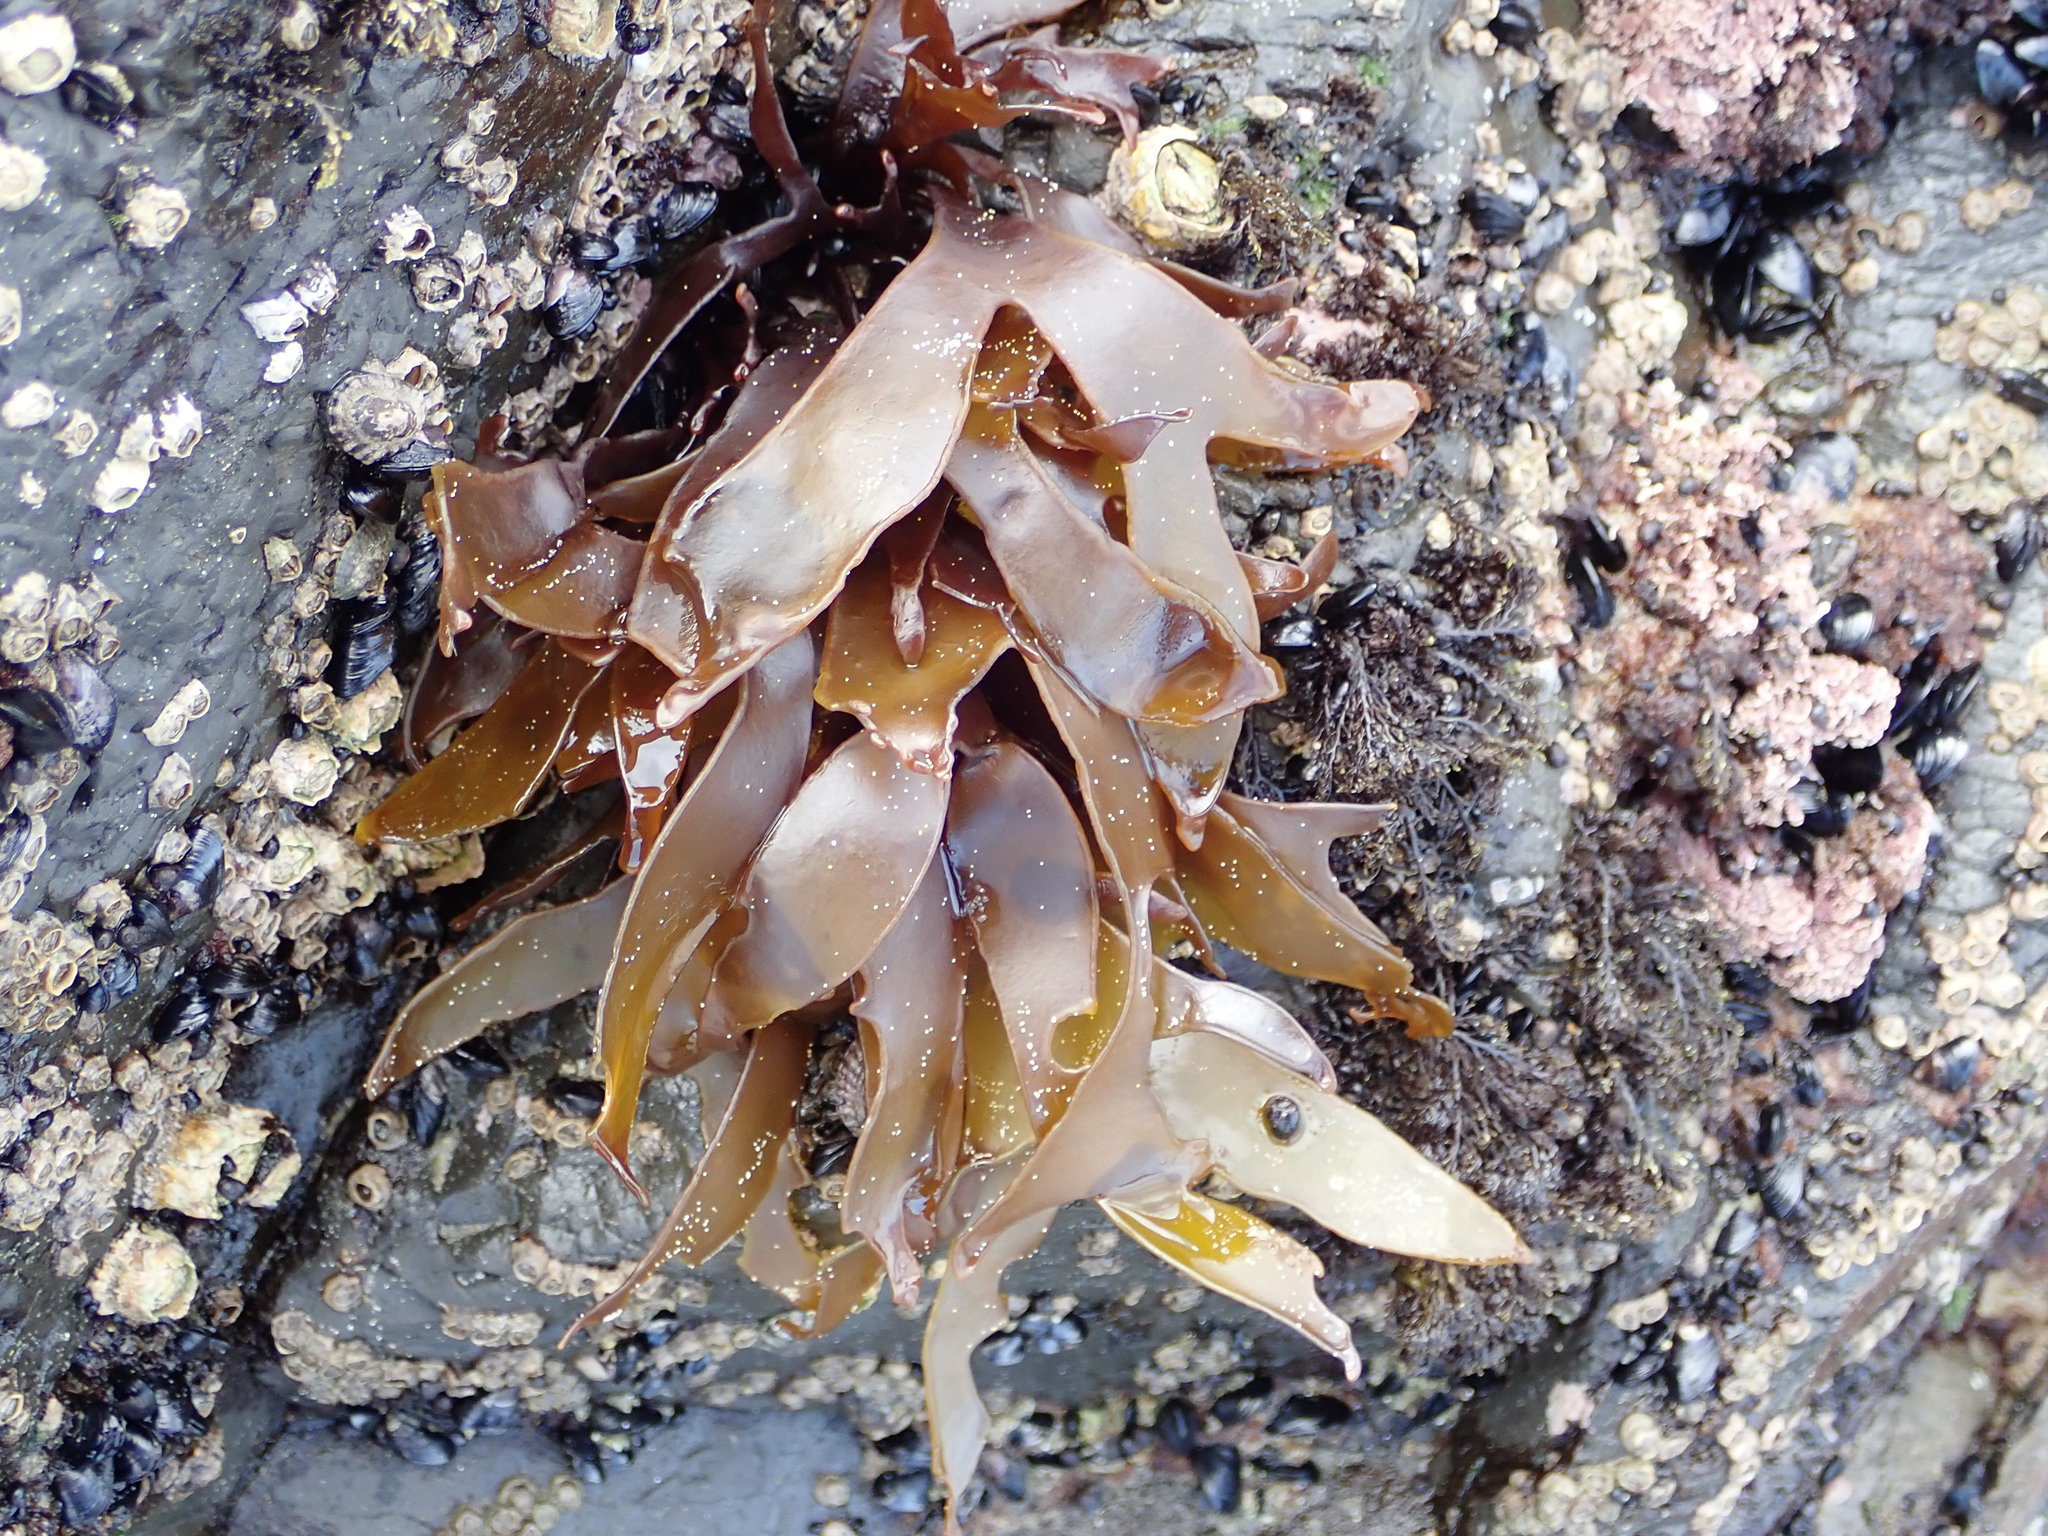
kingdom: Plantae
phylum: Rhodophyta
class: Florideophyceae
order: Halymeniales
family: Halymeniaceae
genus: Pachymenia
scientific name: Pachymenia dichotoma
